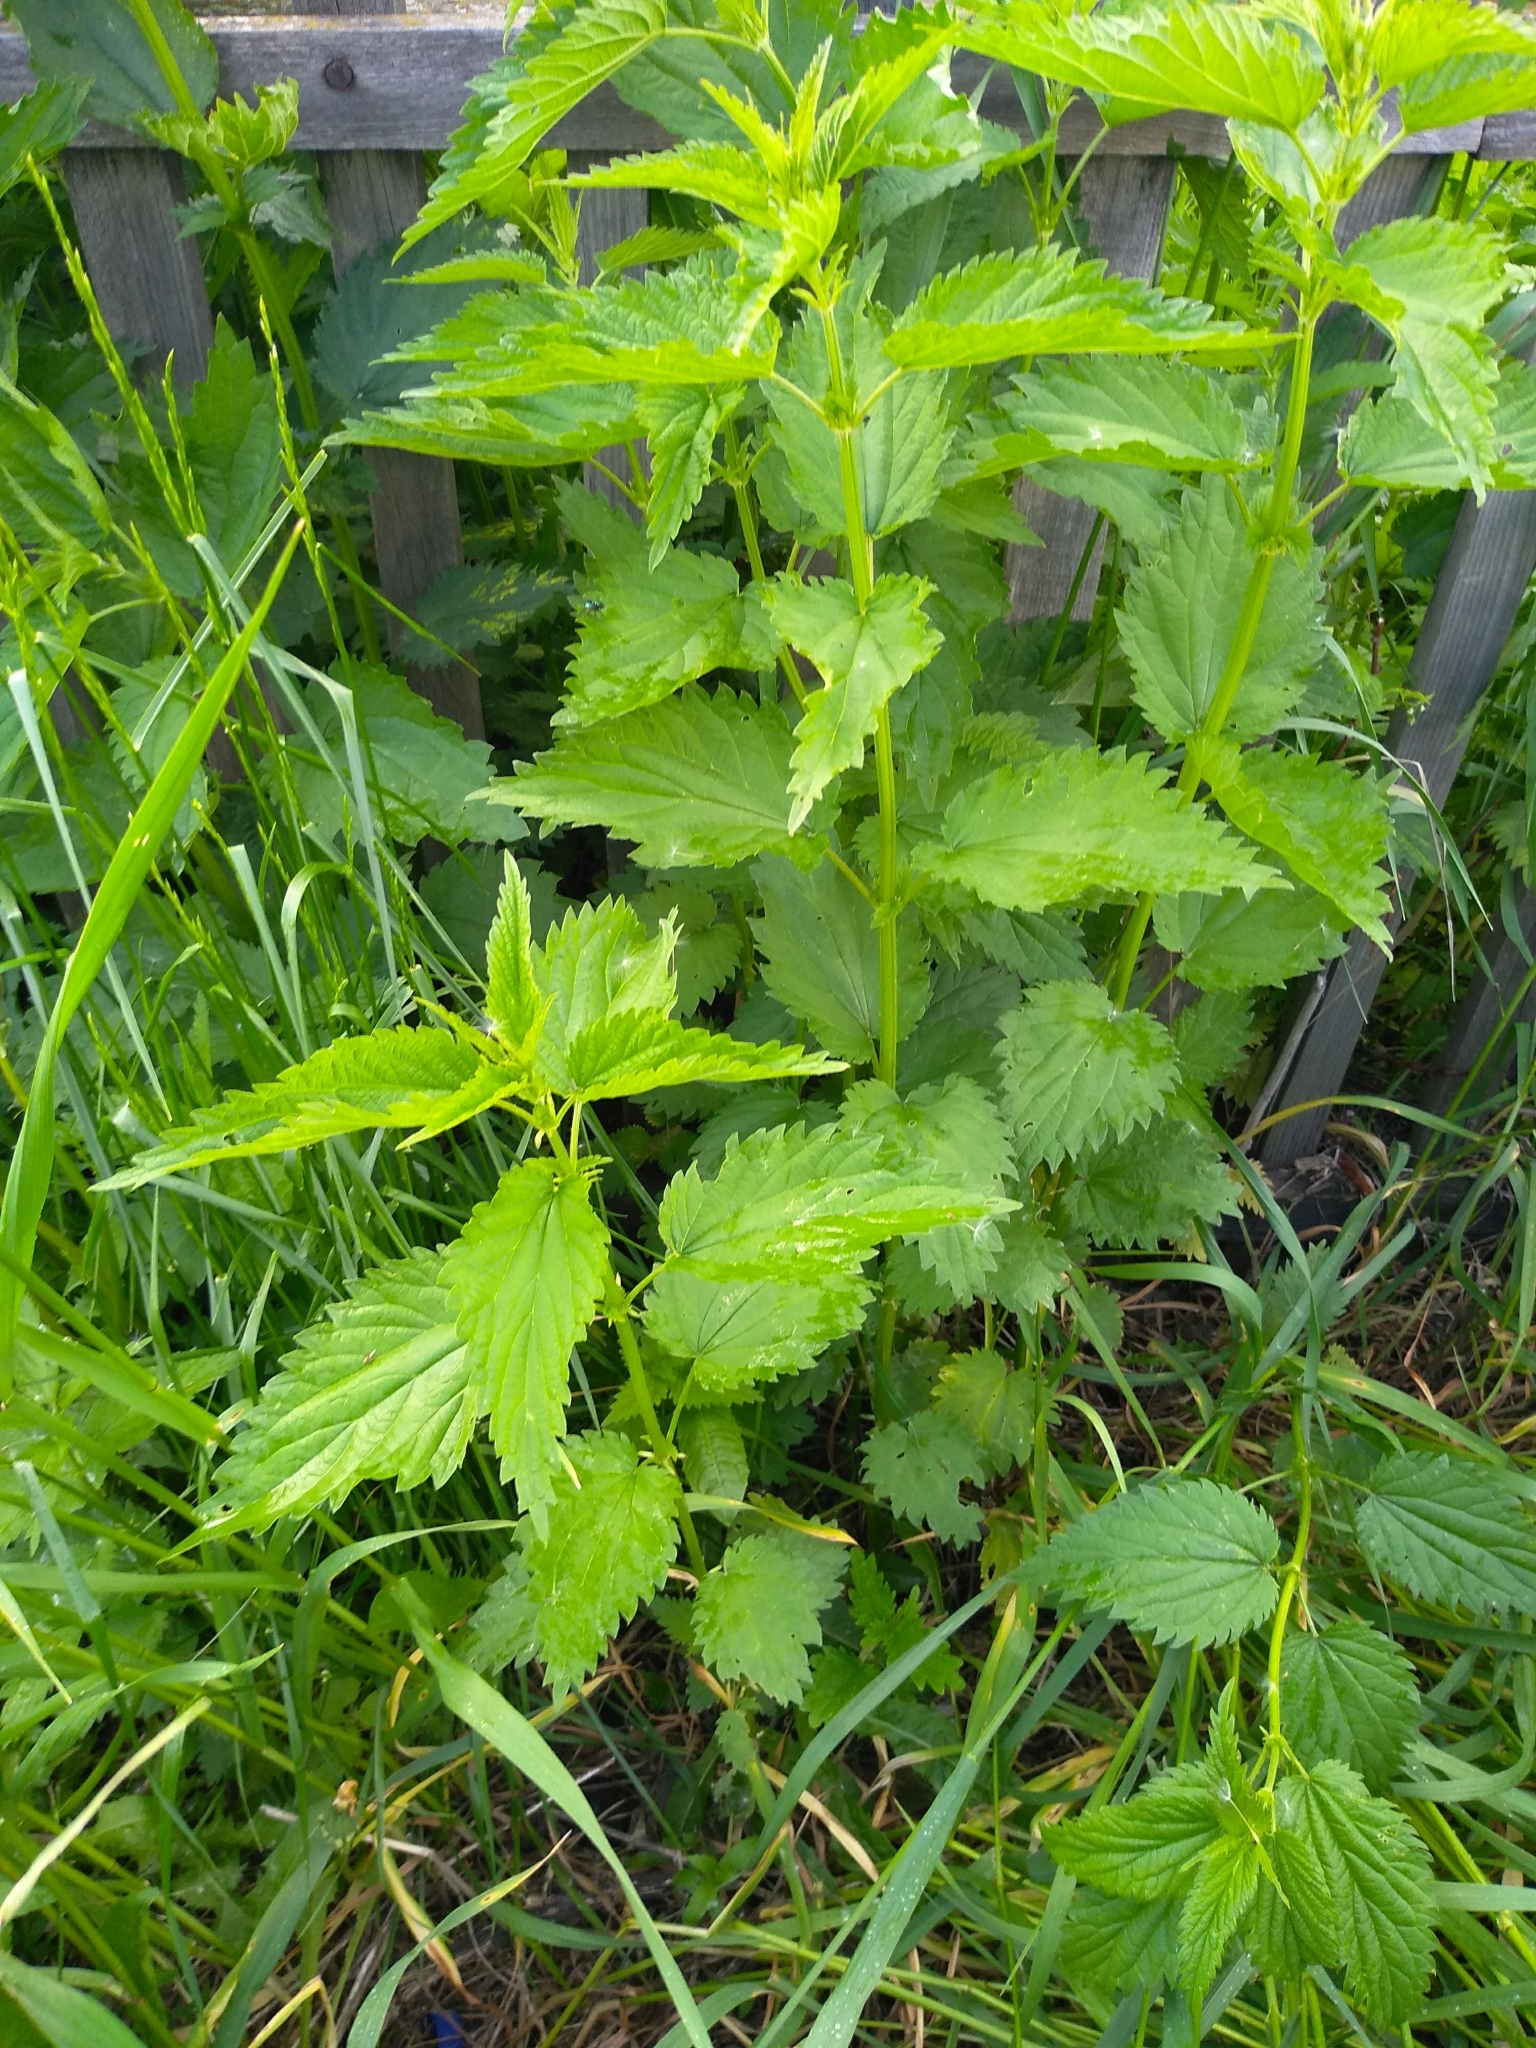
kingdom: Plantae
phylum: Tracheophyta
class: Magnoliopsida
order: Rosales
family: Urticaceae
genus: Urtica
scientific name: Urtica dioica
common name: Common nettle
